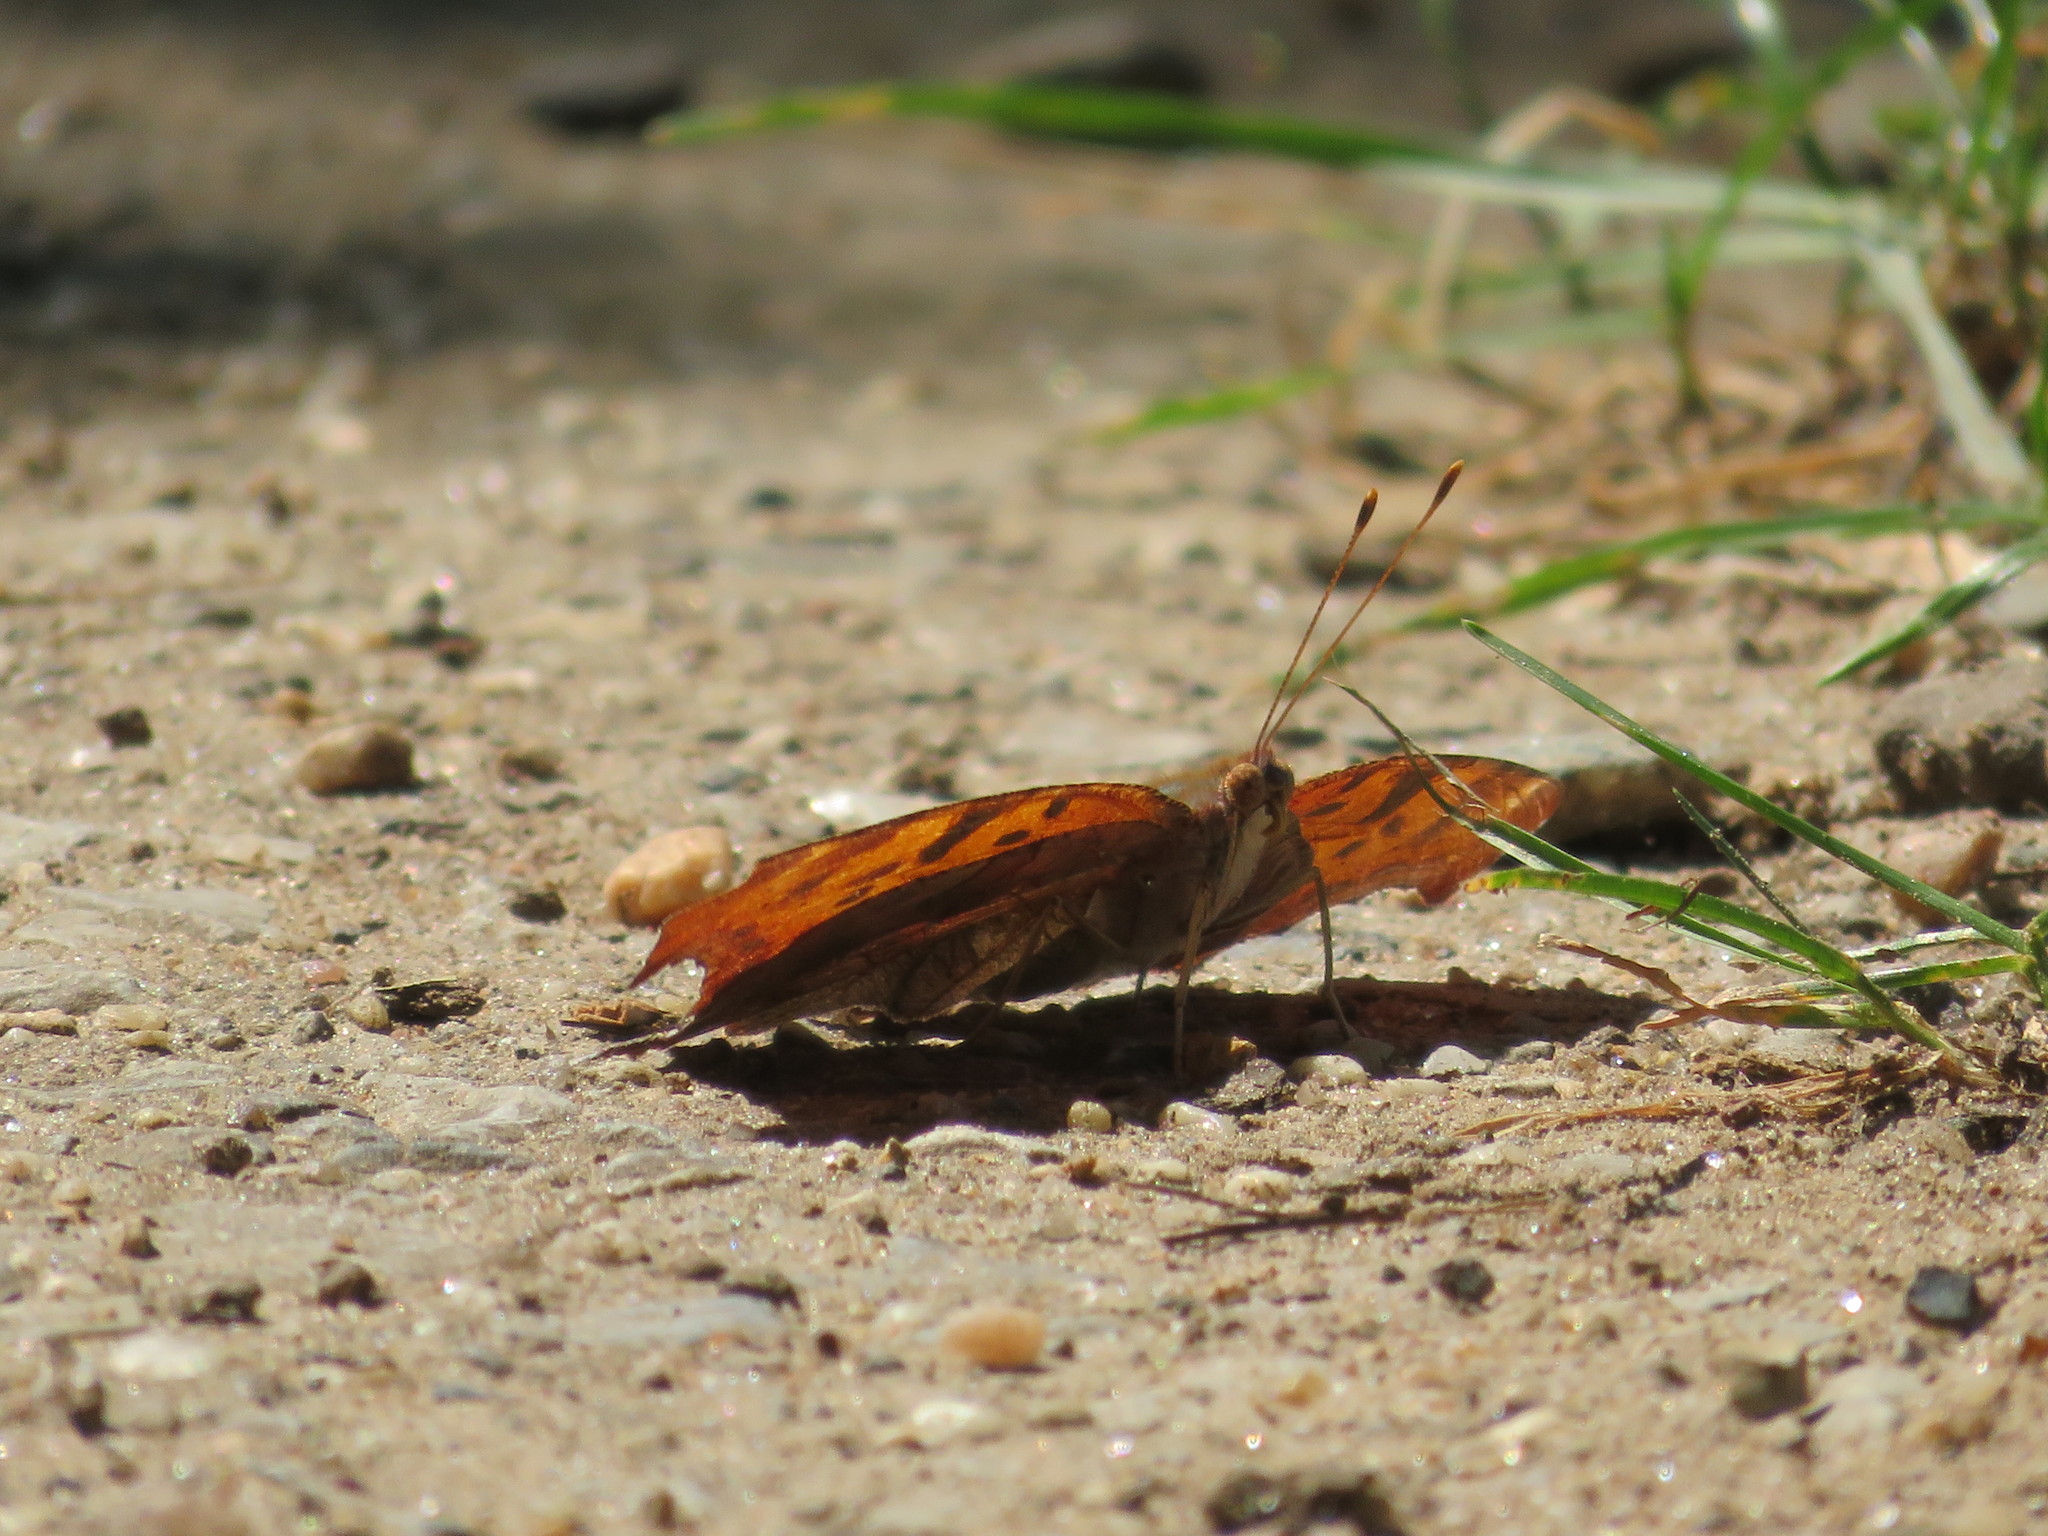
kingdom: Animalia
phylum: Arthropoda
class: Insecta
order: Lepidoptera
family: Nymphalidae
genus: Polygonia
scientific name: Polygonia interrogationis
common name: Question mark
